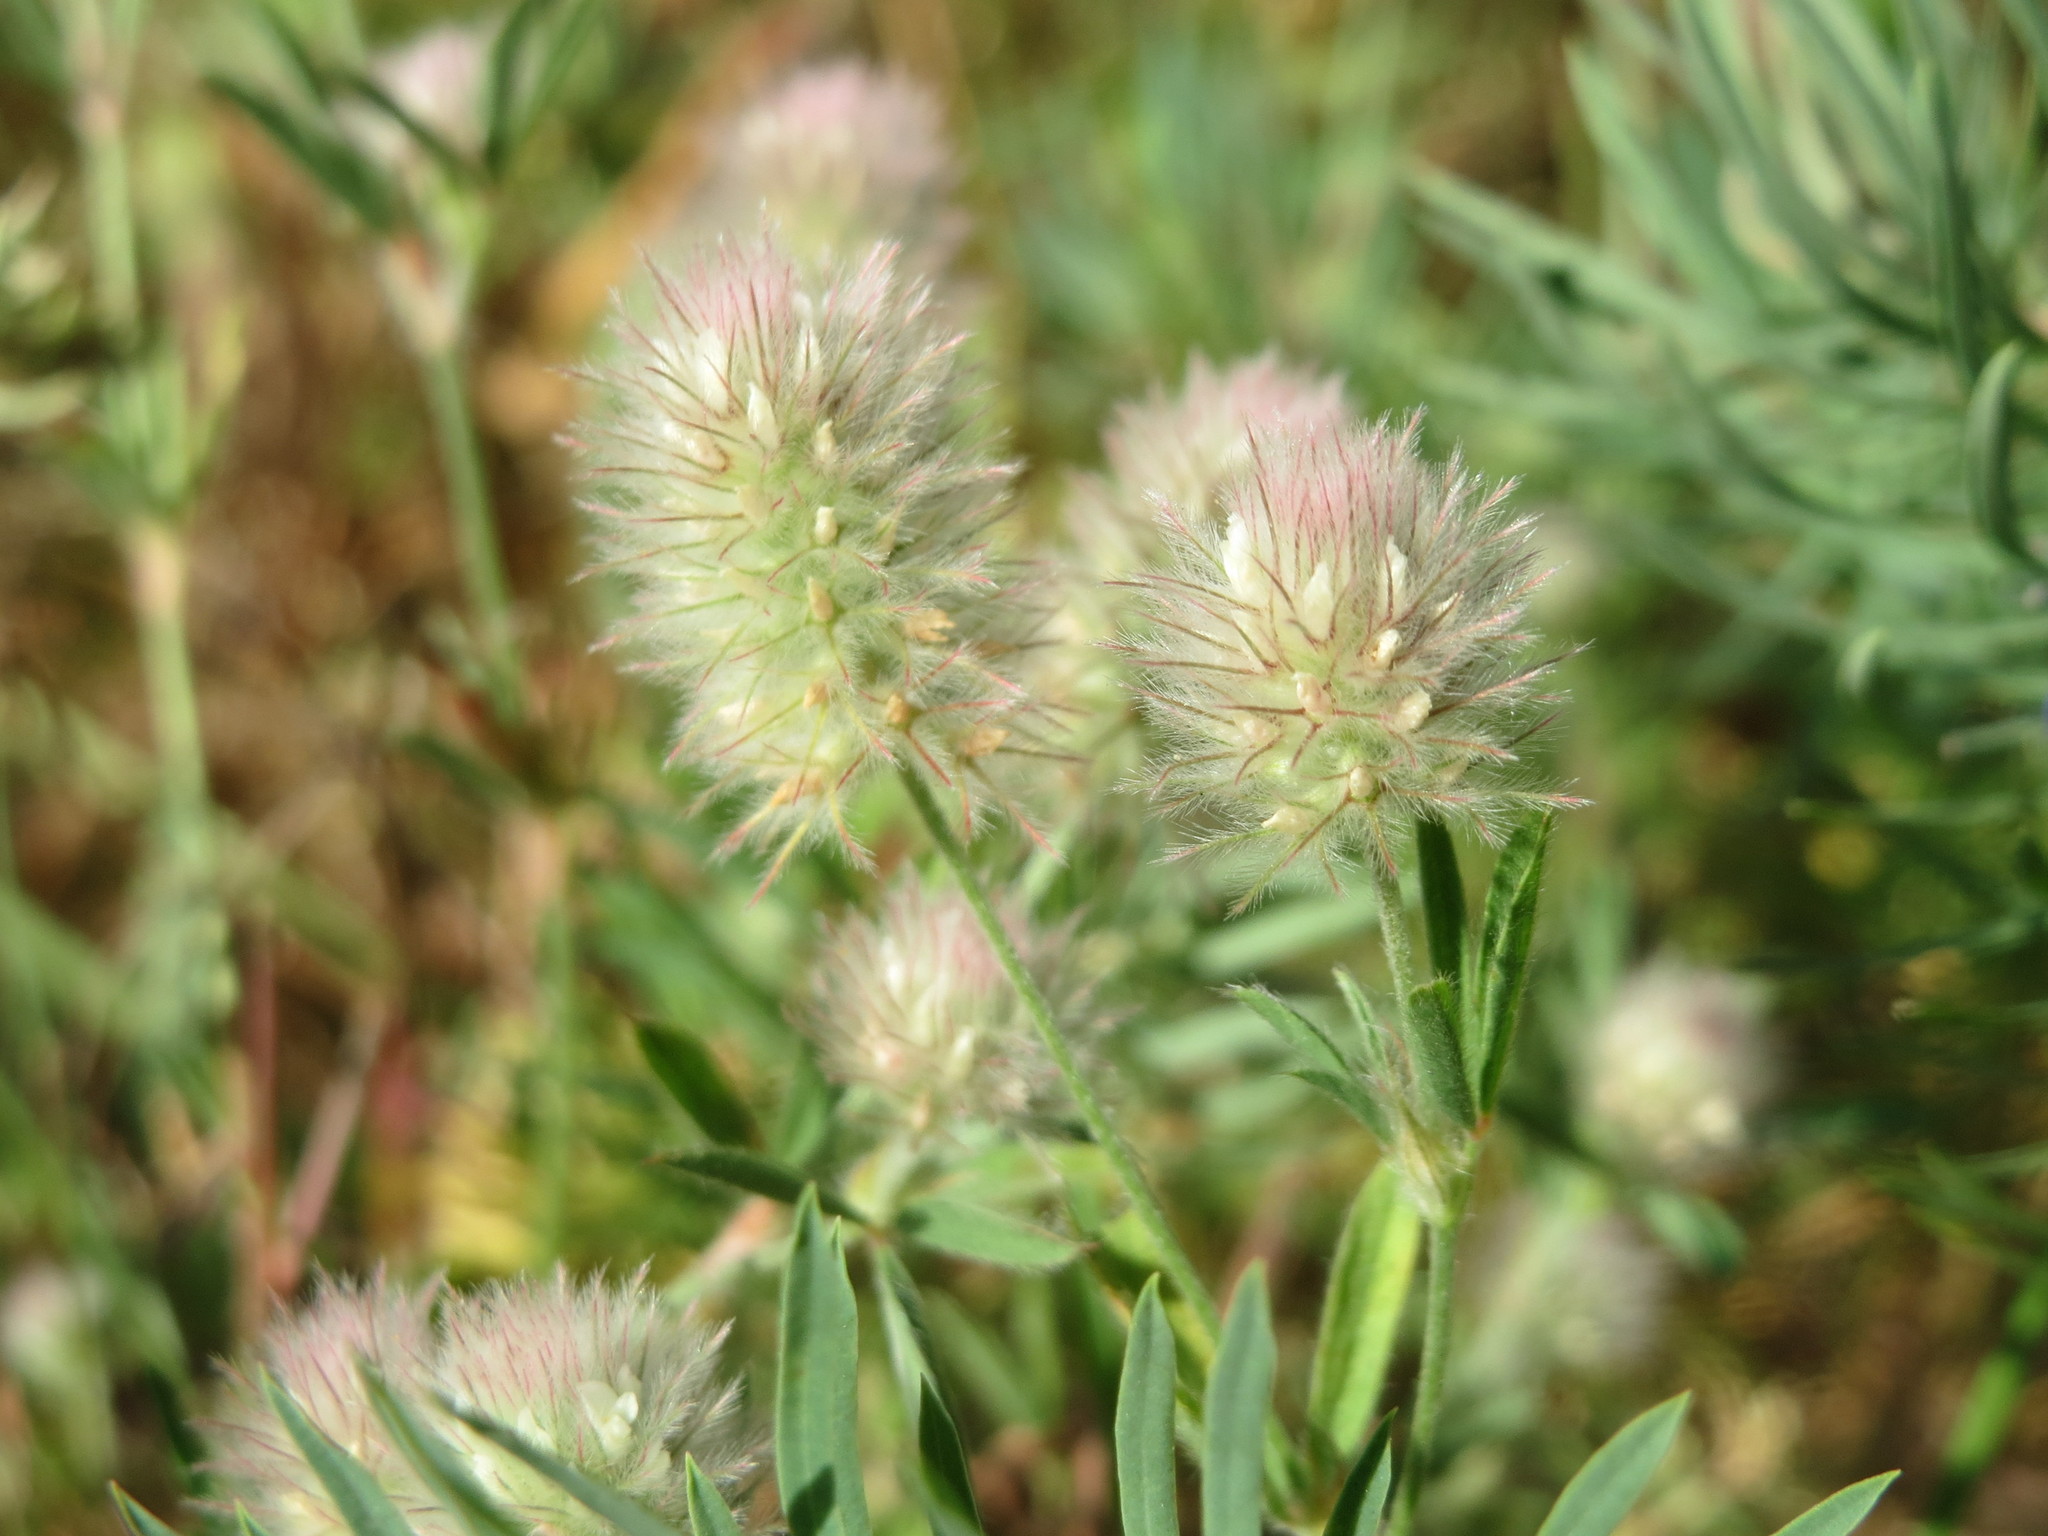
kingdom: Plantae
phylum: Tracheophyta
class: Magnoliopsida
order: Fabales
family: Fabaceae
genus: Trifolium
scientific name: Trifolium arvense
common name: Hare's-foot clover
